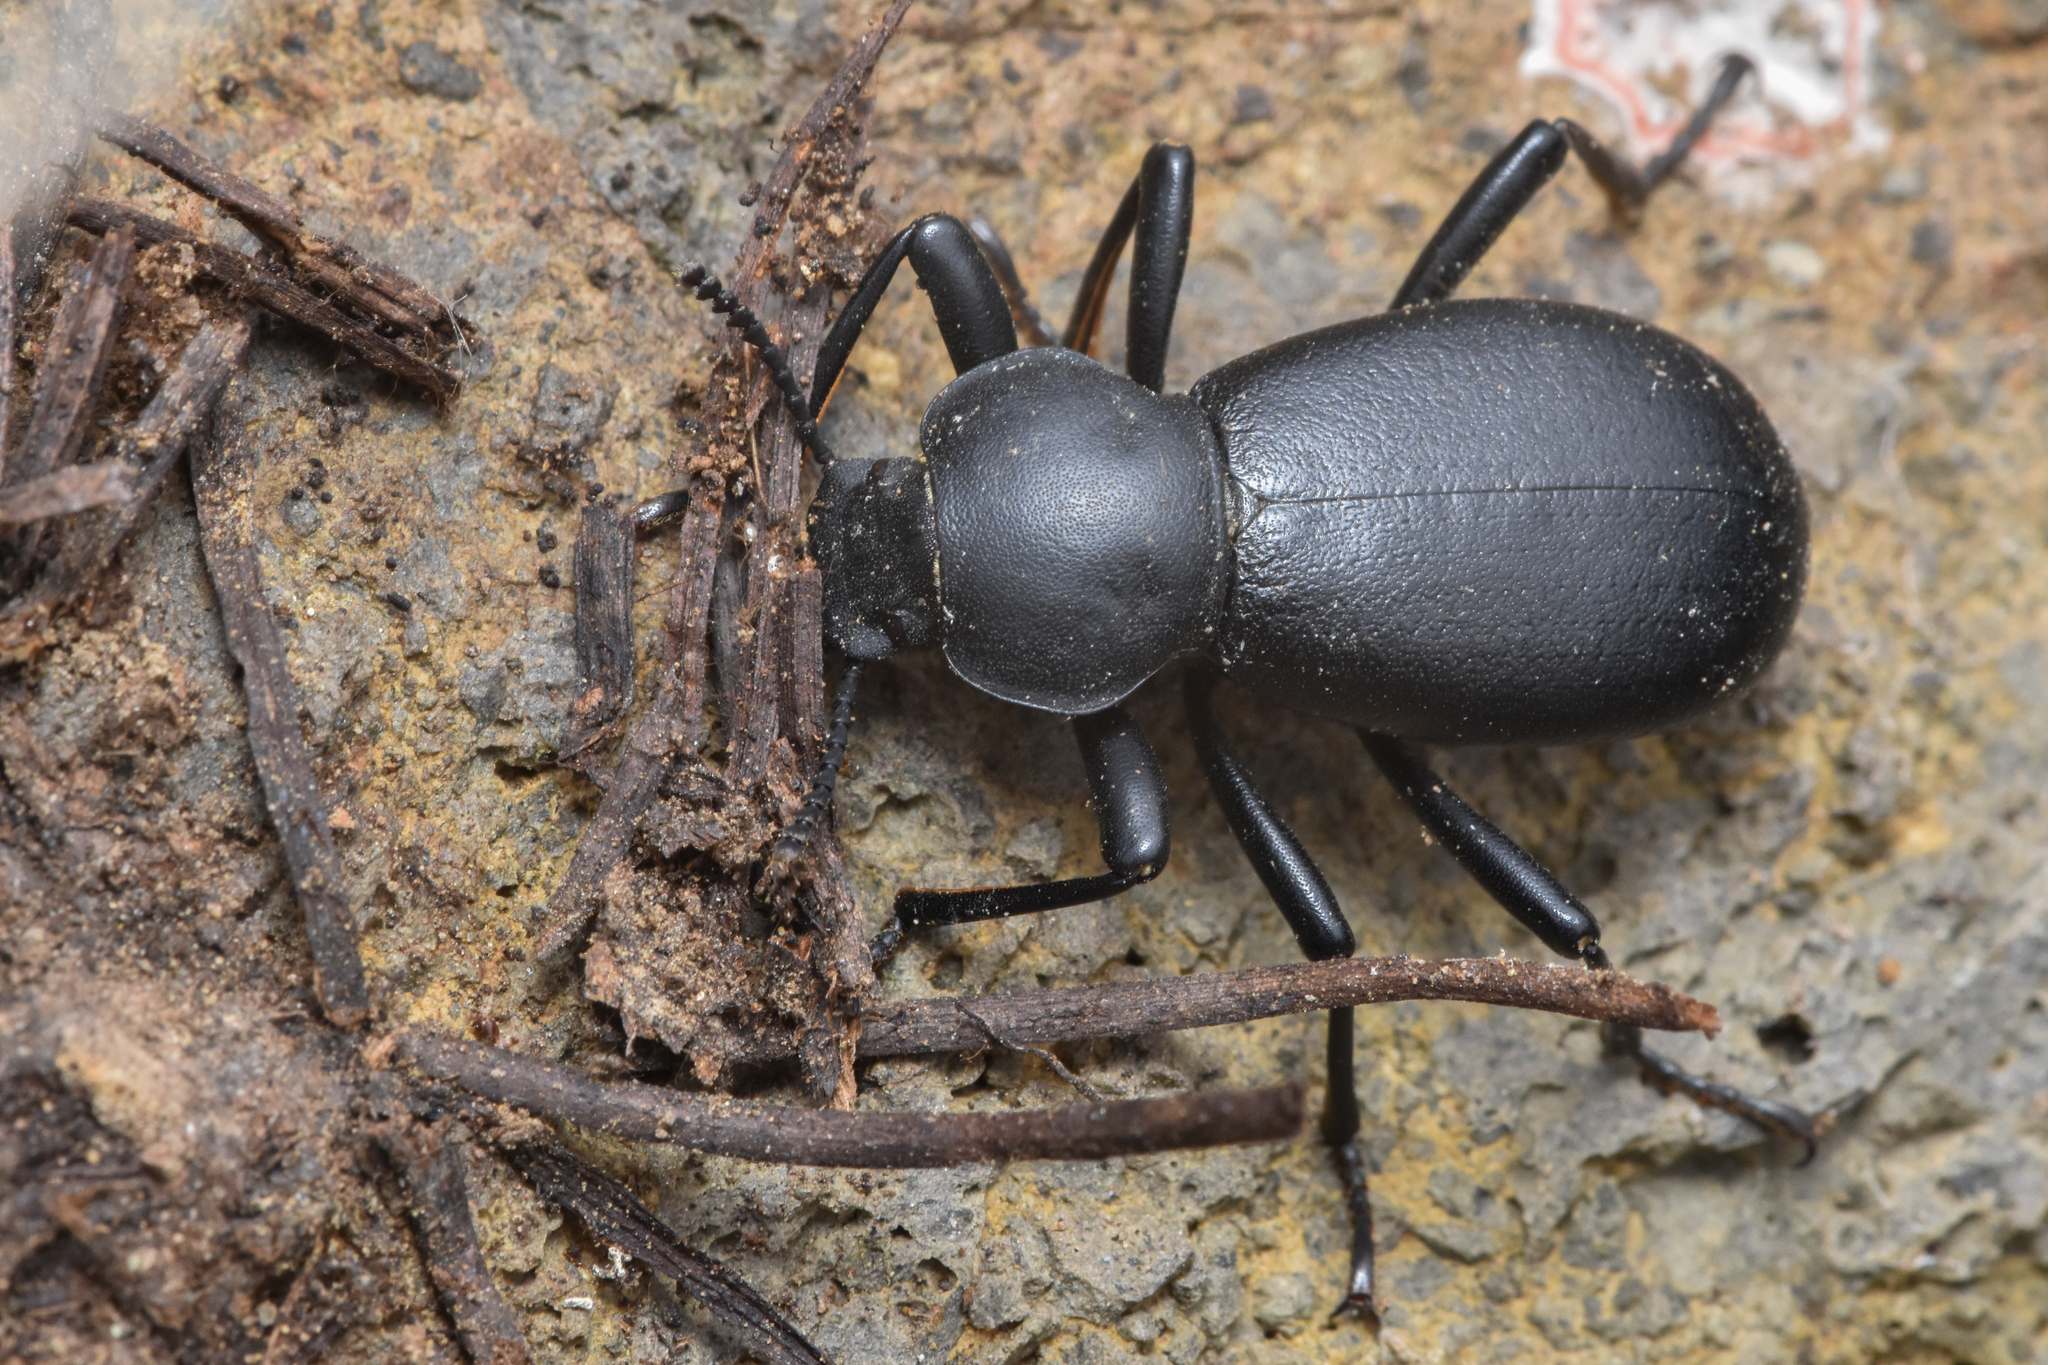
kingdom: Animalia
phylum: Arthropoda
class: Insecta
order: Coleoptera
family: Tenebrionidae
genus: Coelocnemis
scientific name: Coelocnemis dilaticollis
